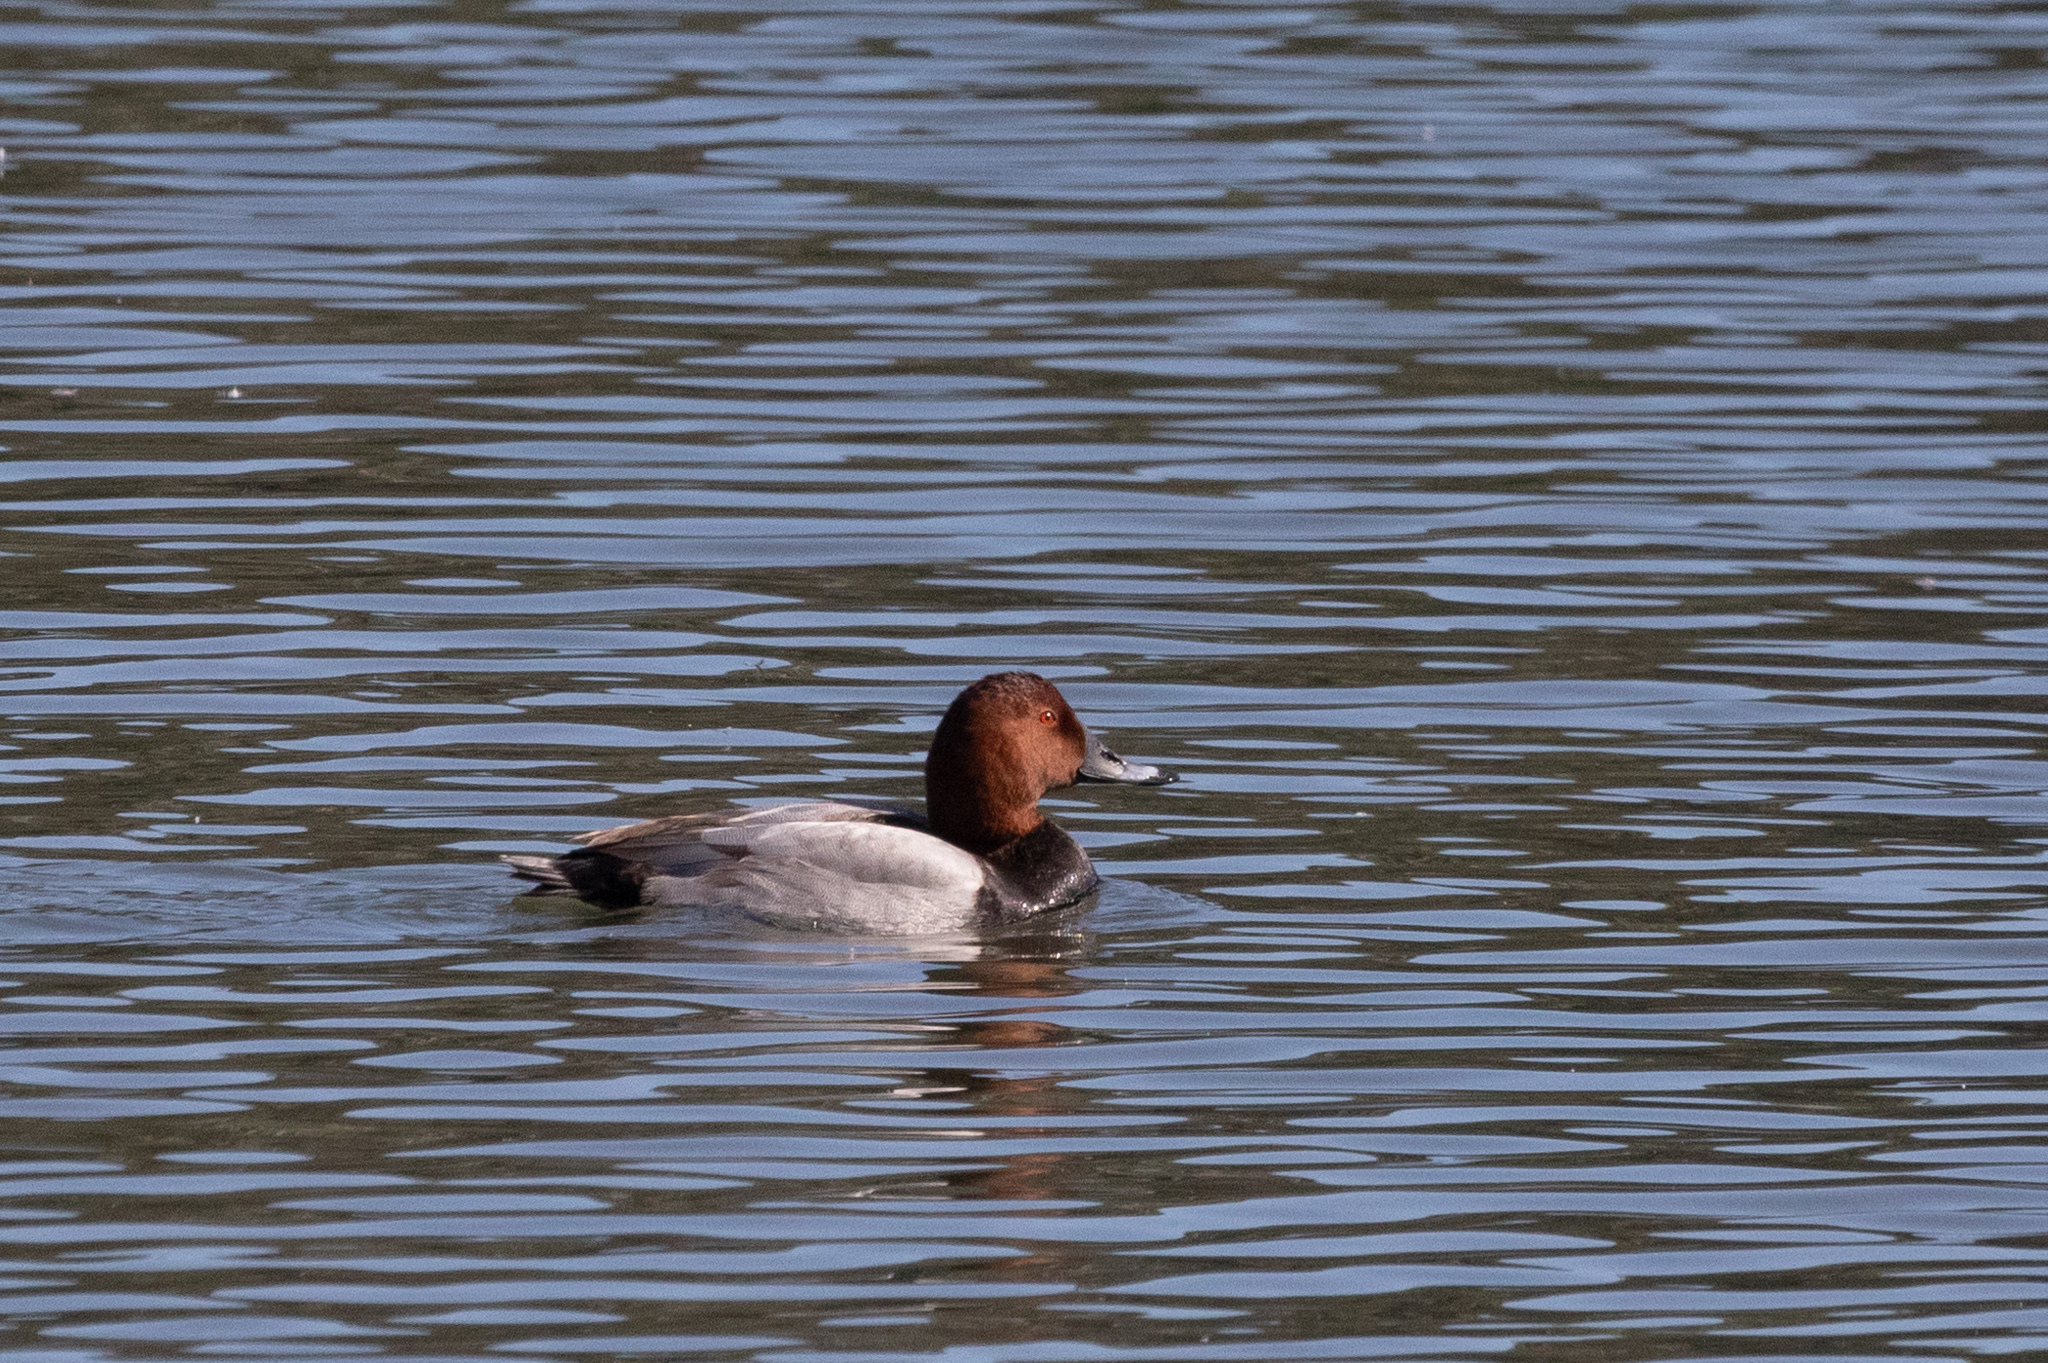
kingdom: Animalia
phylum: Chordata
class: Aves
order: Anseriformes
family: Anatidae
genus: Aythya
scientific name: Aythya ferina
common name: Common pochard
